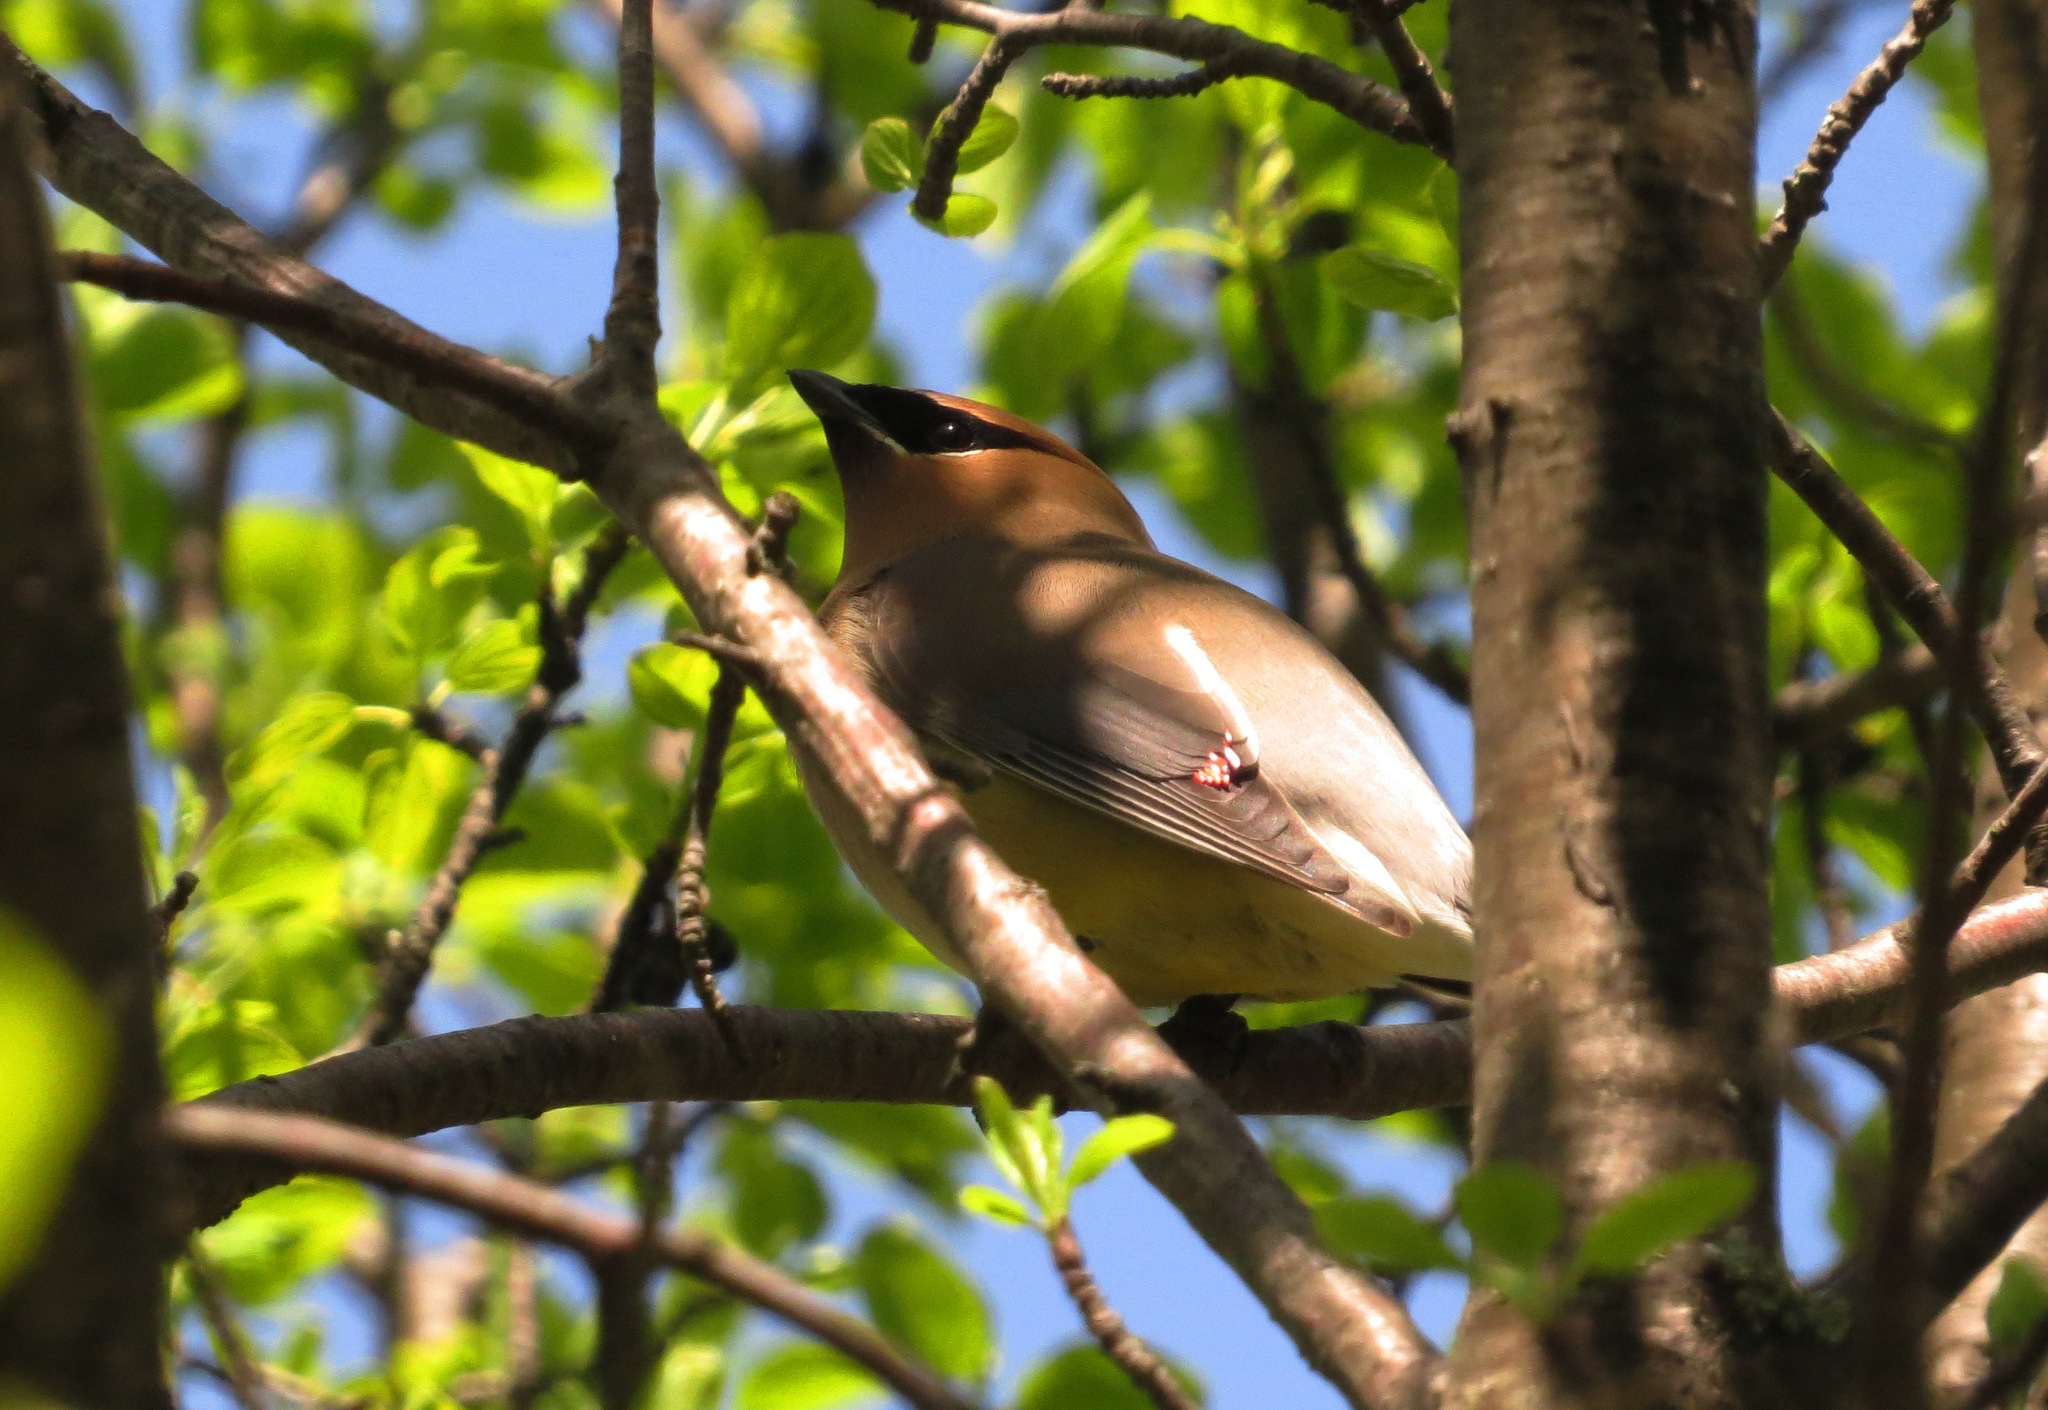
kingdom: Animalia
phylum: Chordata
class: Aves
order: Passeriformes
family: Bombycillidae
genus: Bombycilla
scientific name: Bombycilla cedrorum
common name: Cedar waxwing
